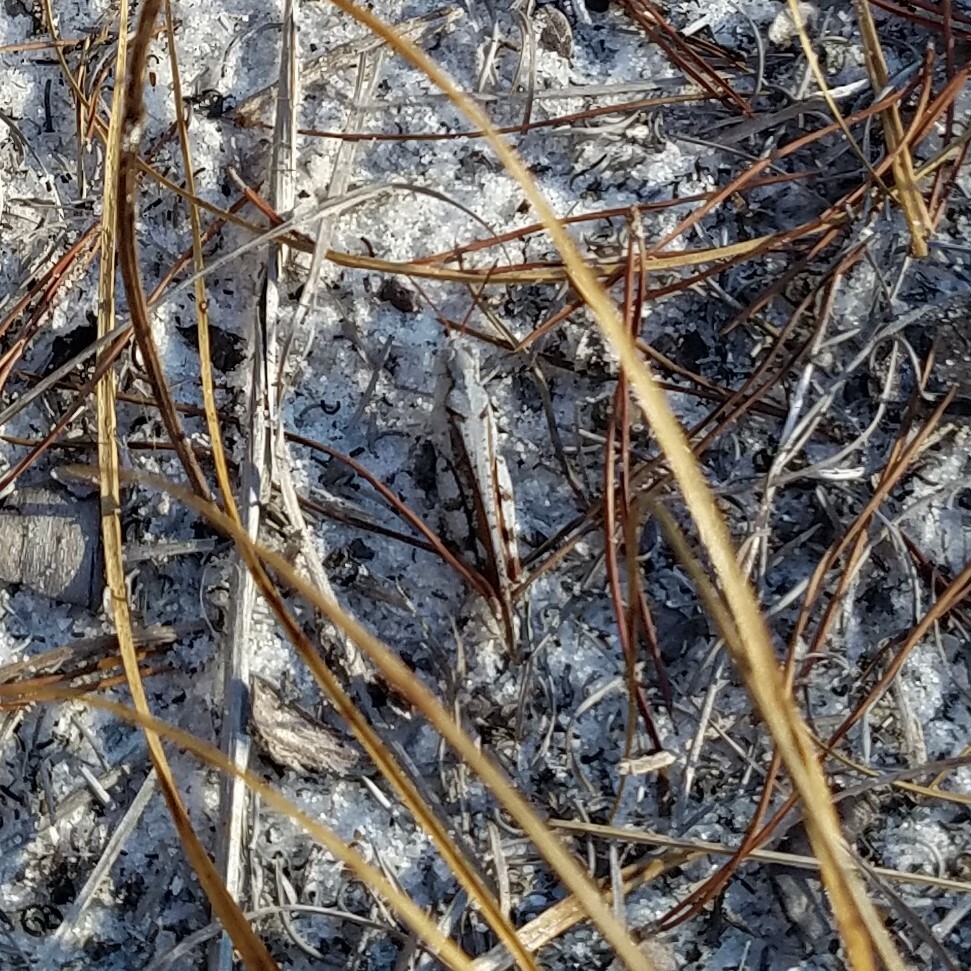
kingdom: Animalia
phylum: Arthropoda
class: Insecta
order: Orthoptera
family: Acrididae
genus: Spharagemon
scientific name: Spharagemon marmoratum
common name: Marbled grasshopper
